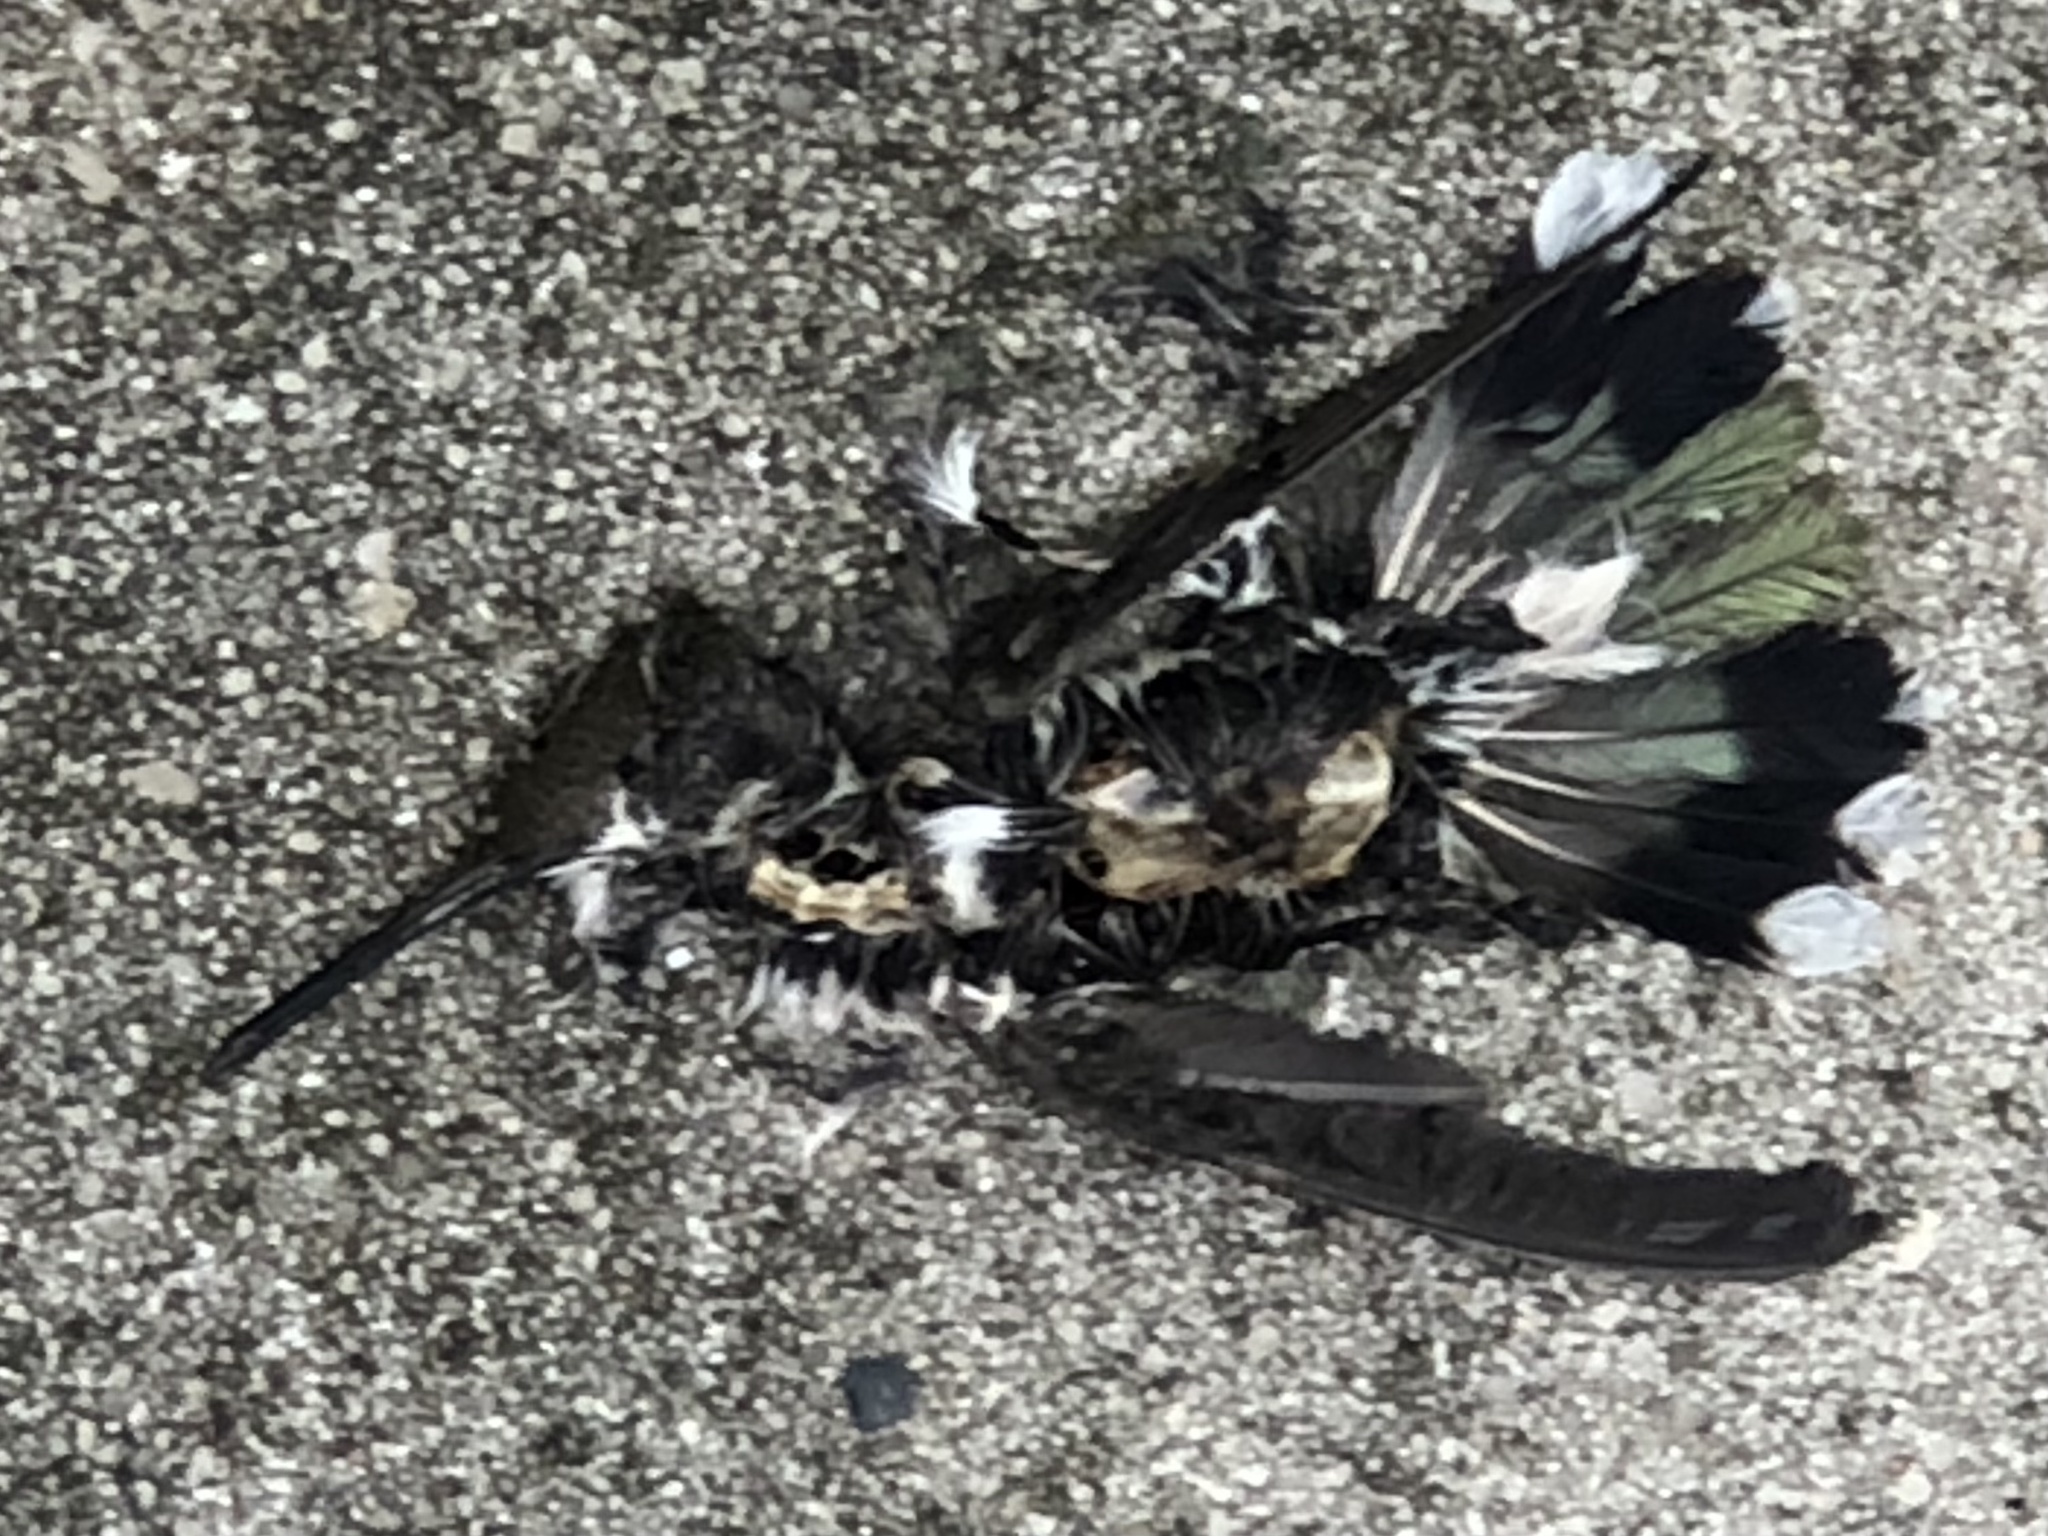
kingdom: Animalia
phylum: Chordata
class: Aves
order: Apodiformes
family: Trochilidae
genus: Archilochus
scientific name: Archilochus colubris
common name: Ruby-throated hummingbird
